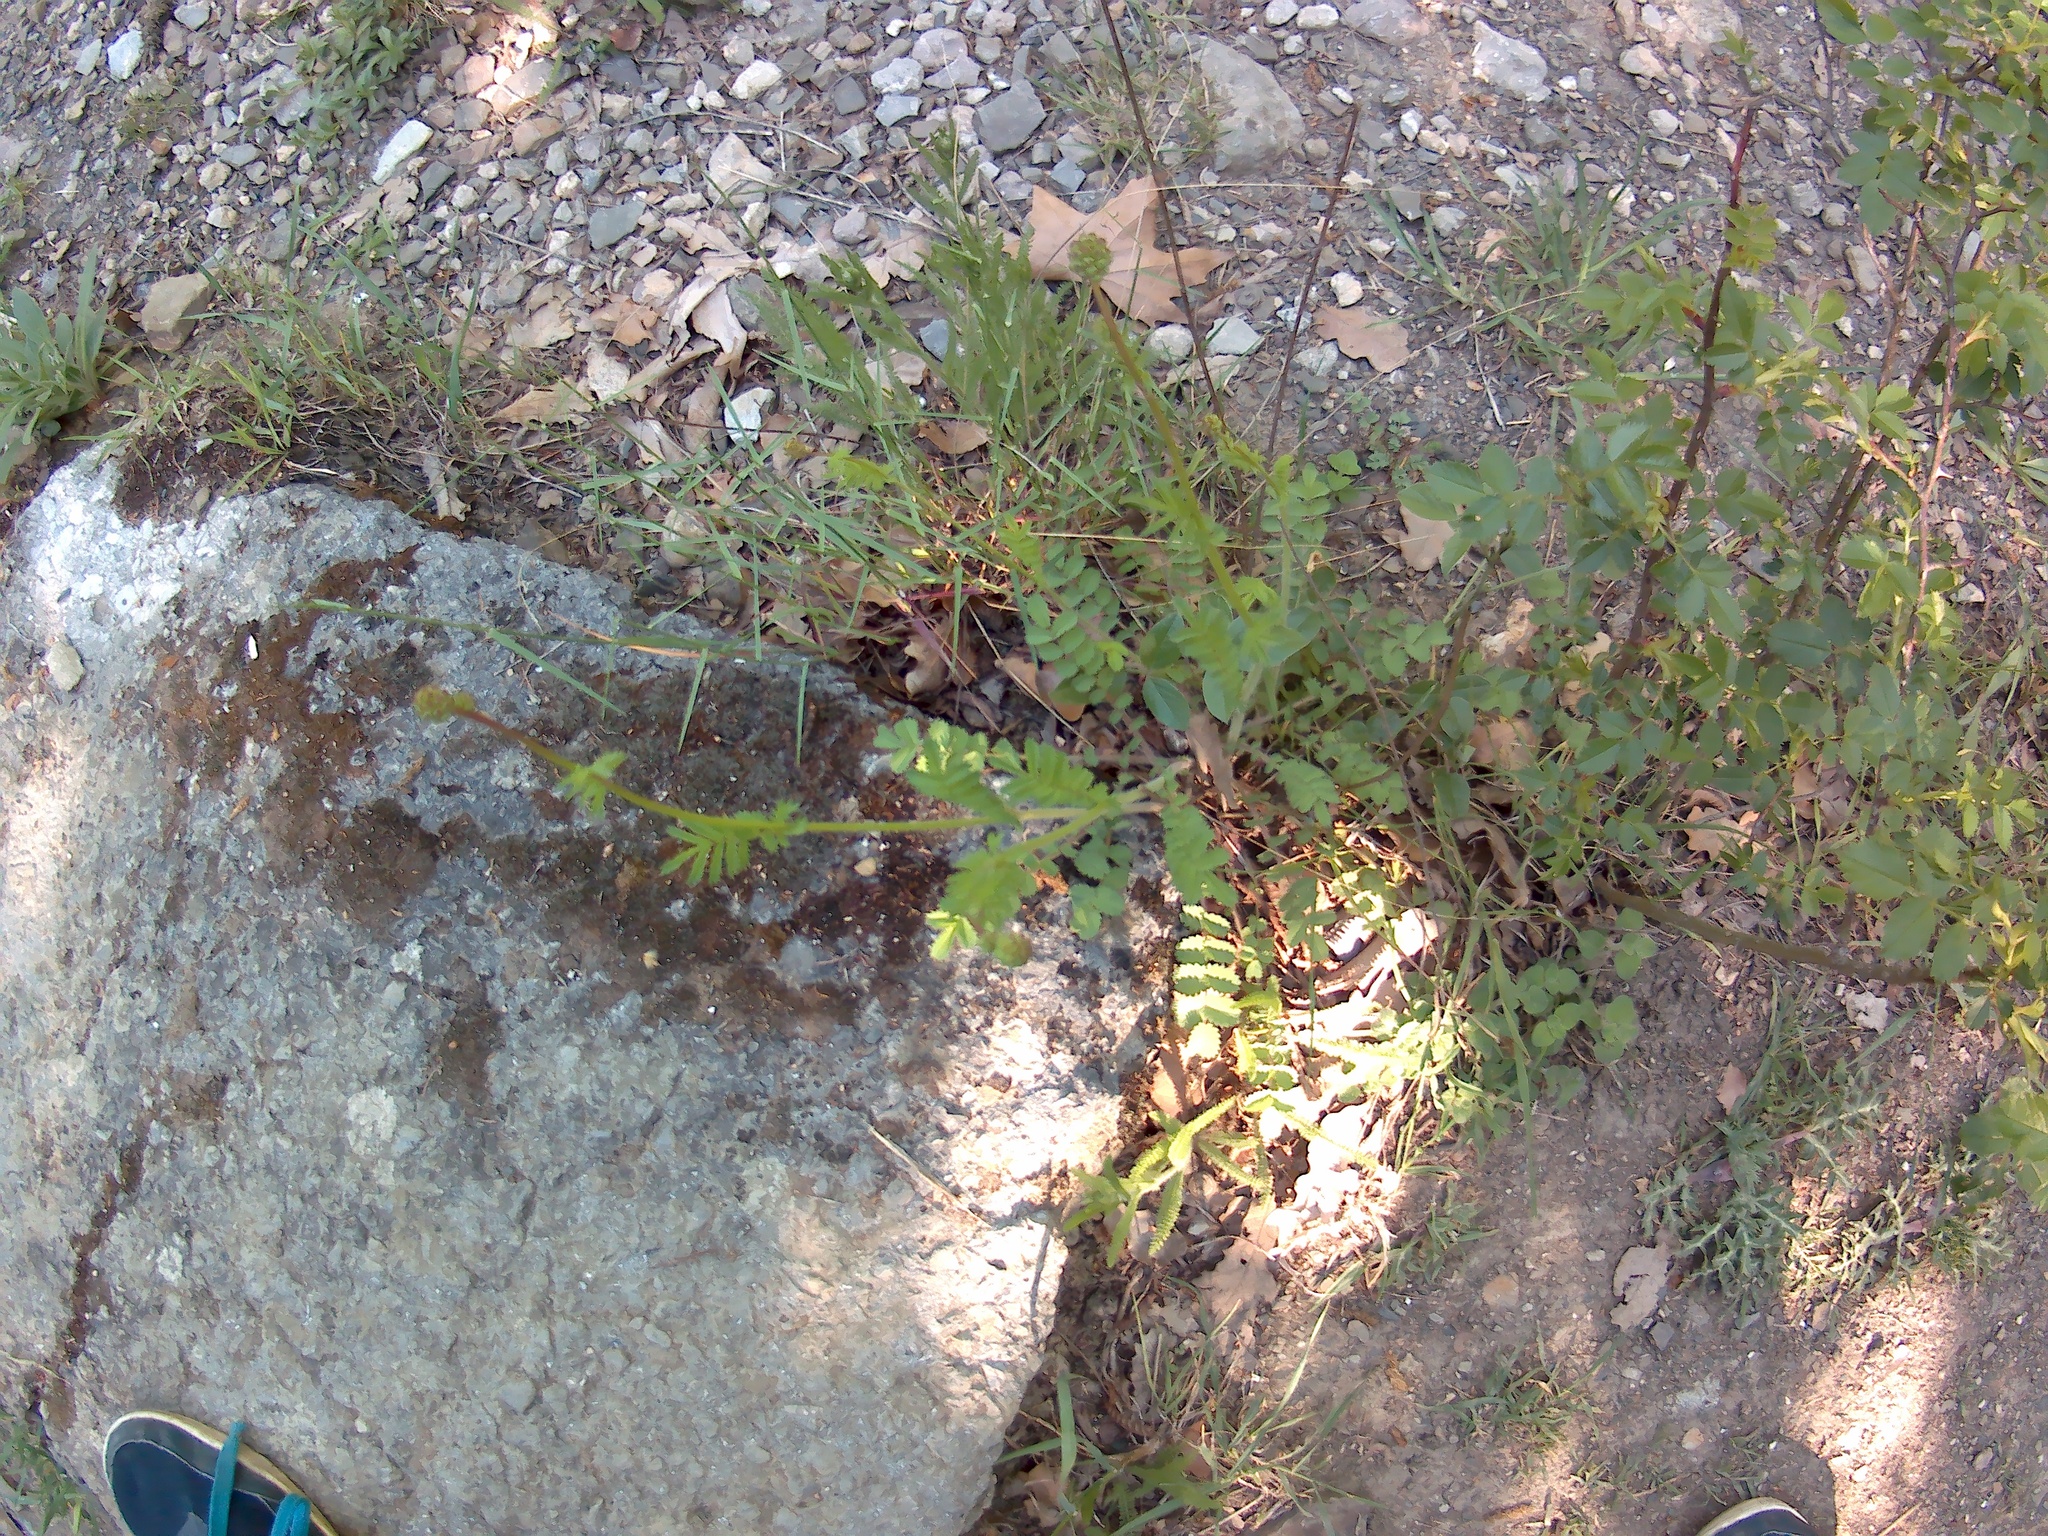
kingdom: Plantae
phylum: Tracheophyta
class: Magnoliopsida
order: Rosales
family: Rosaceae
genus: Poterium
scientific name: Poterium sanguisorba
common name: Salad burnet
